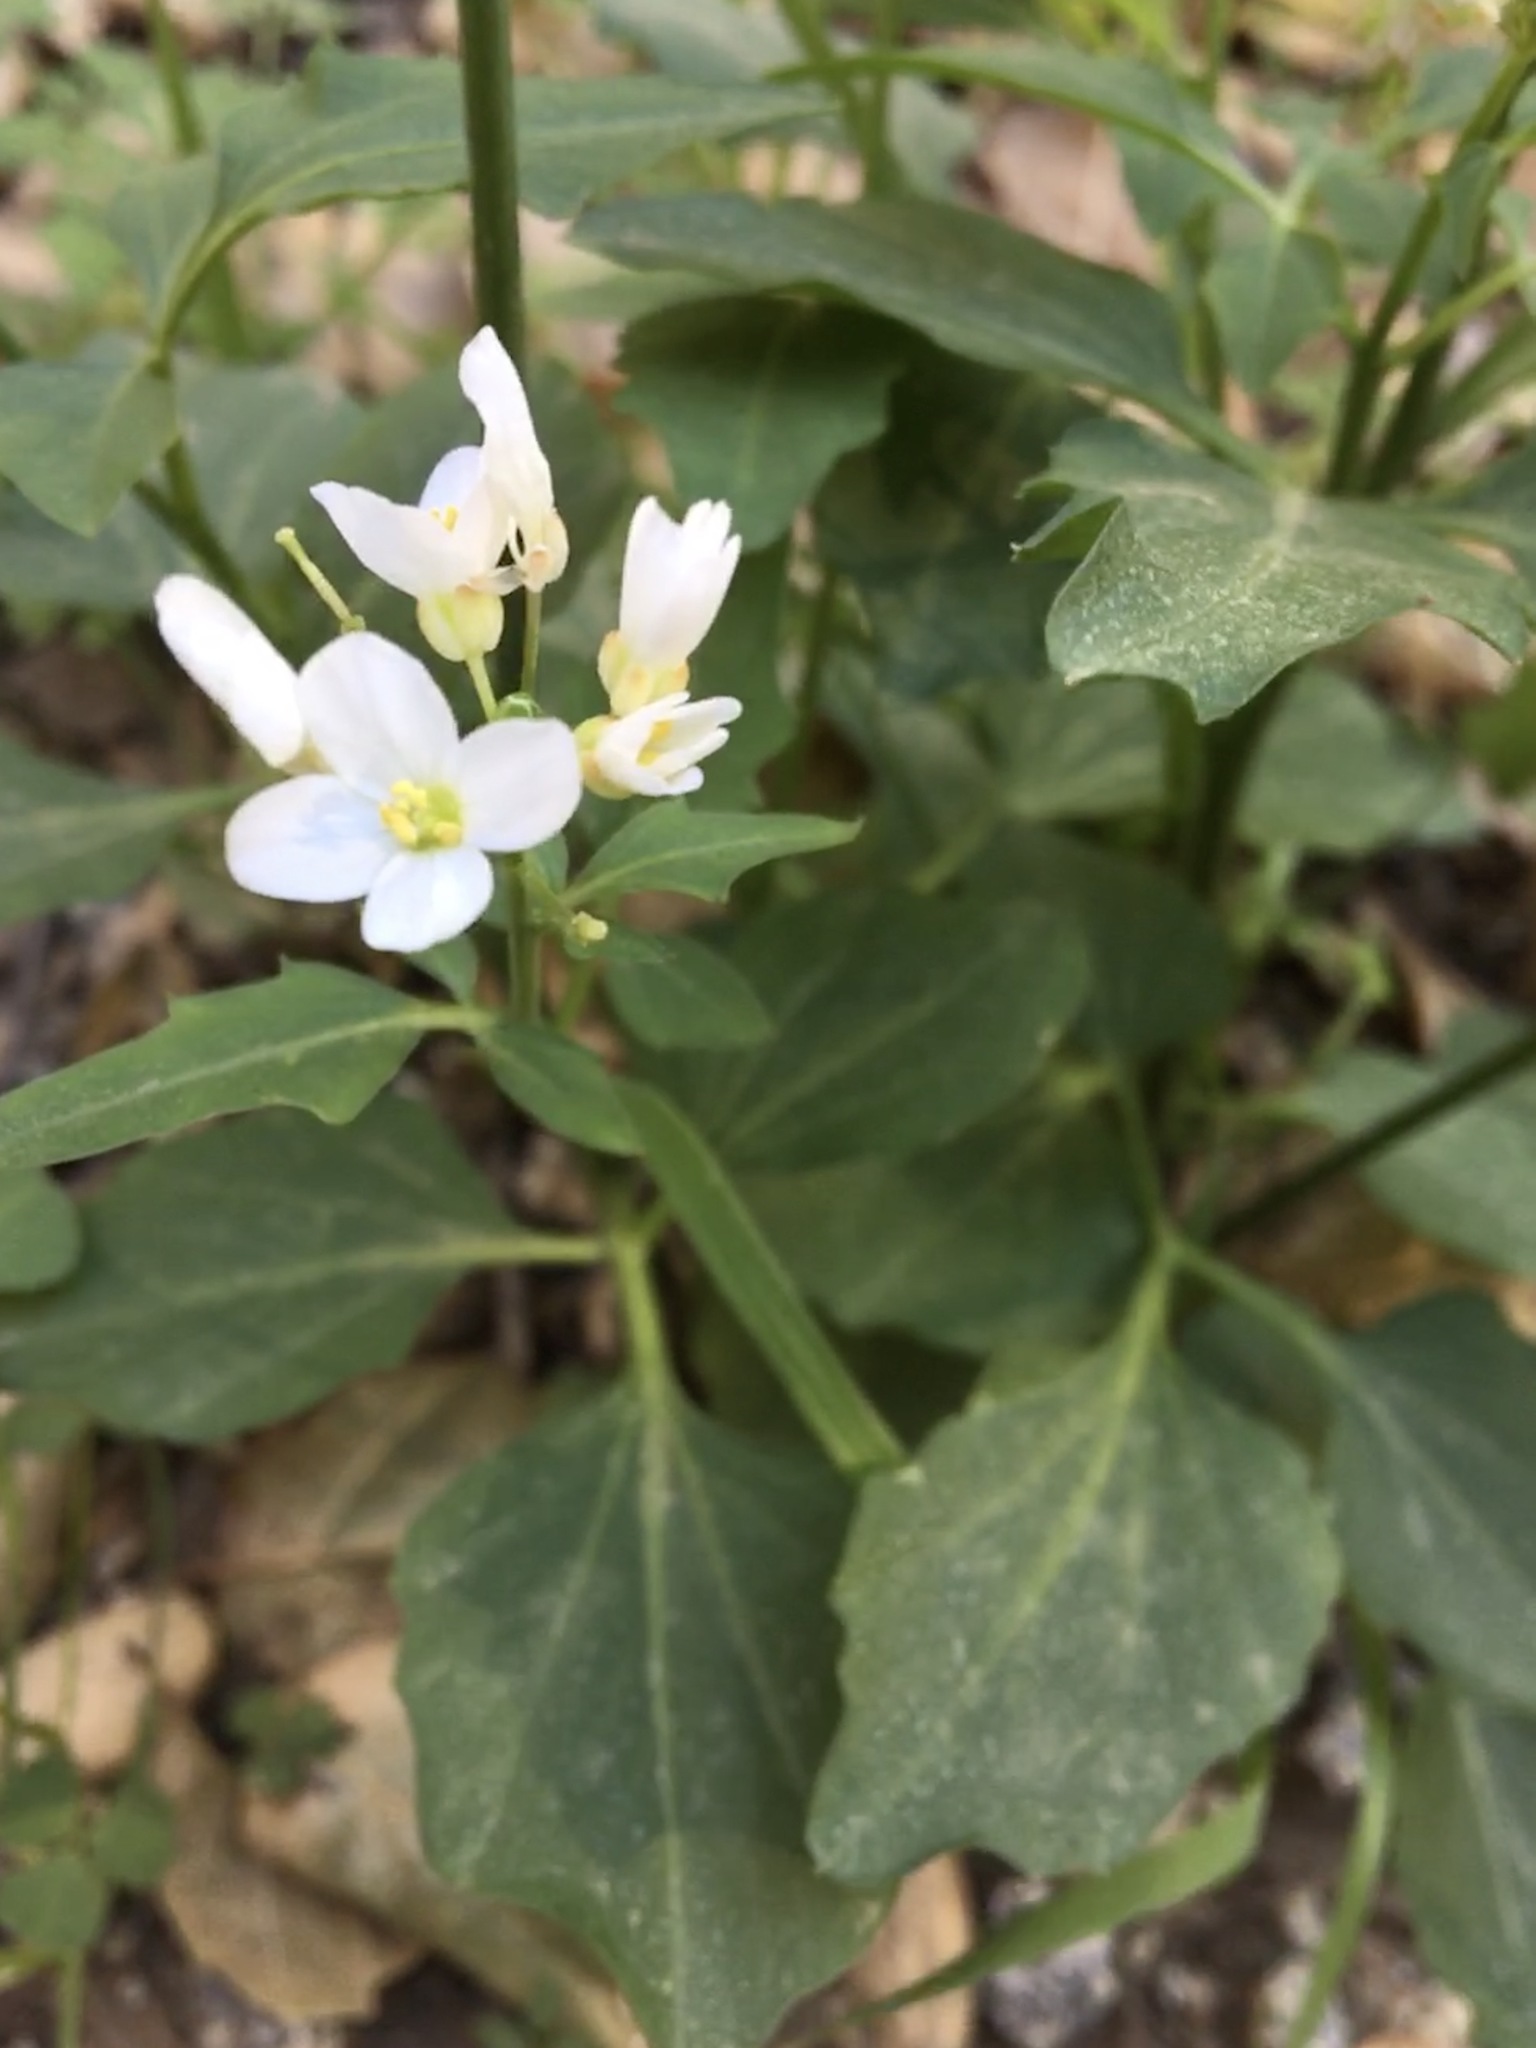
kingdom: Plantae
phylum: Tracheophyta
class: Magnoliopsida
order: Brassicales
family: Brassicaceae
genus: Cardamine
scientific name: Cardamine californica
